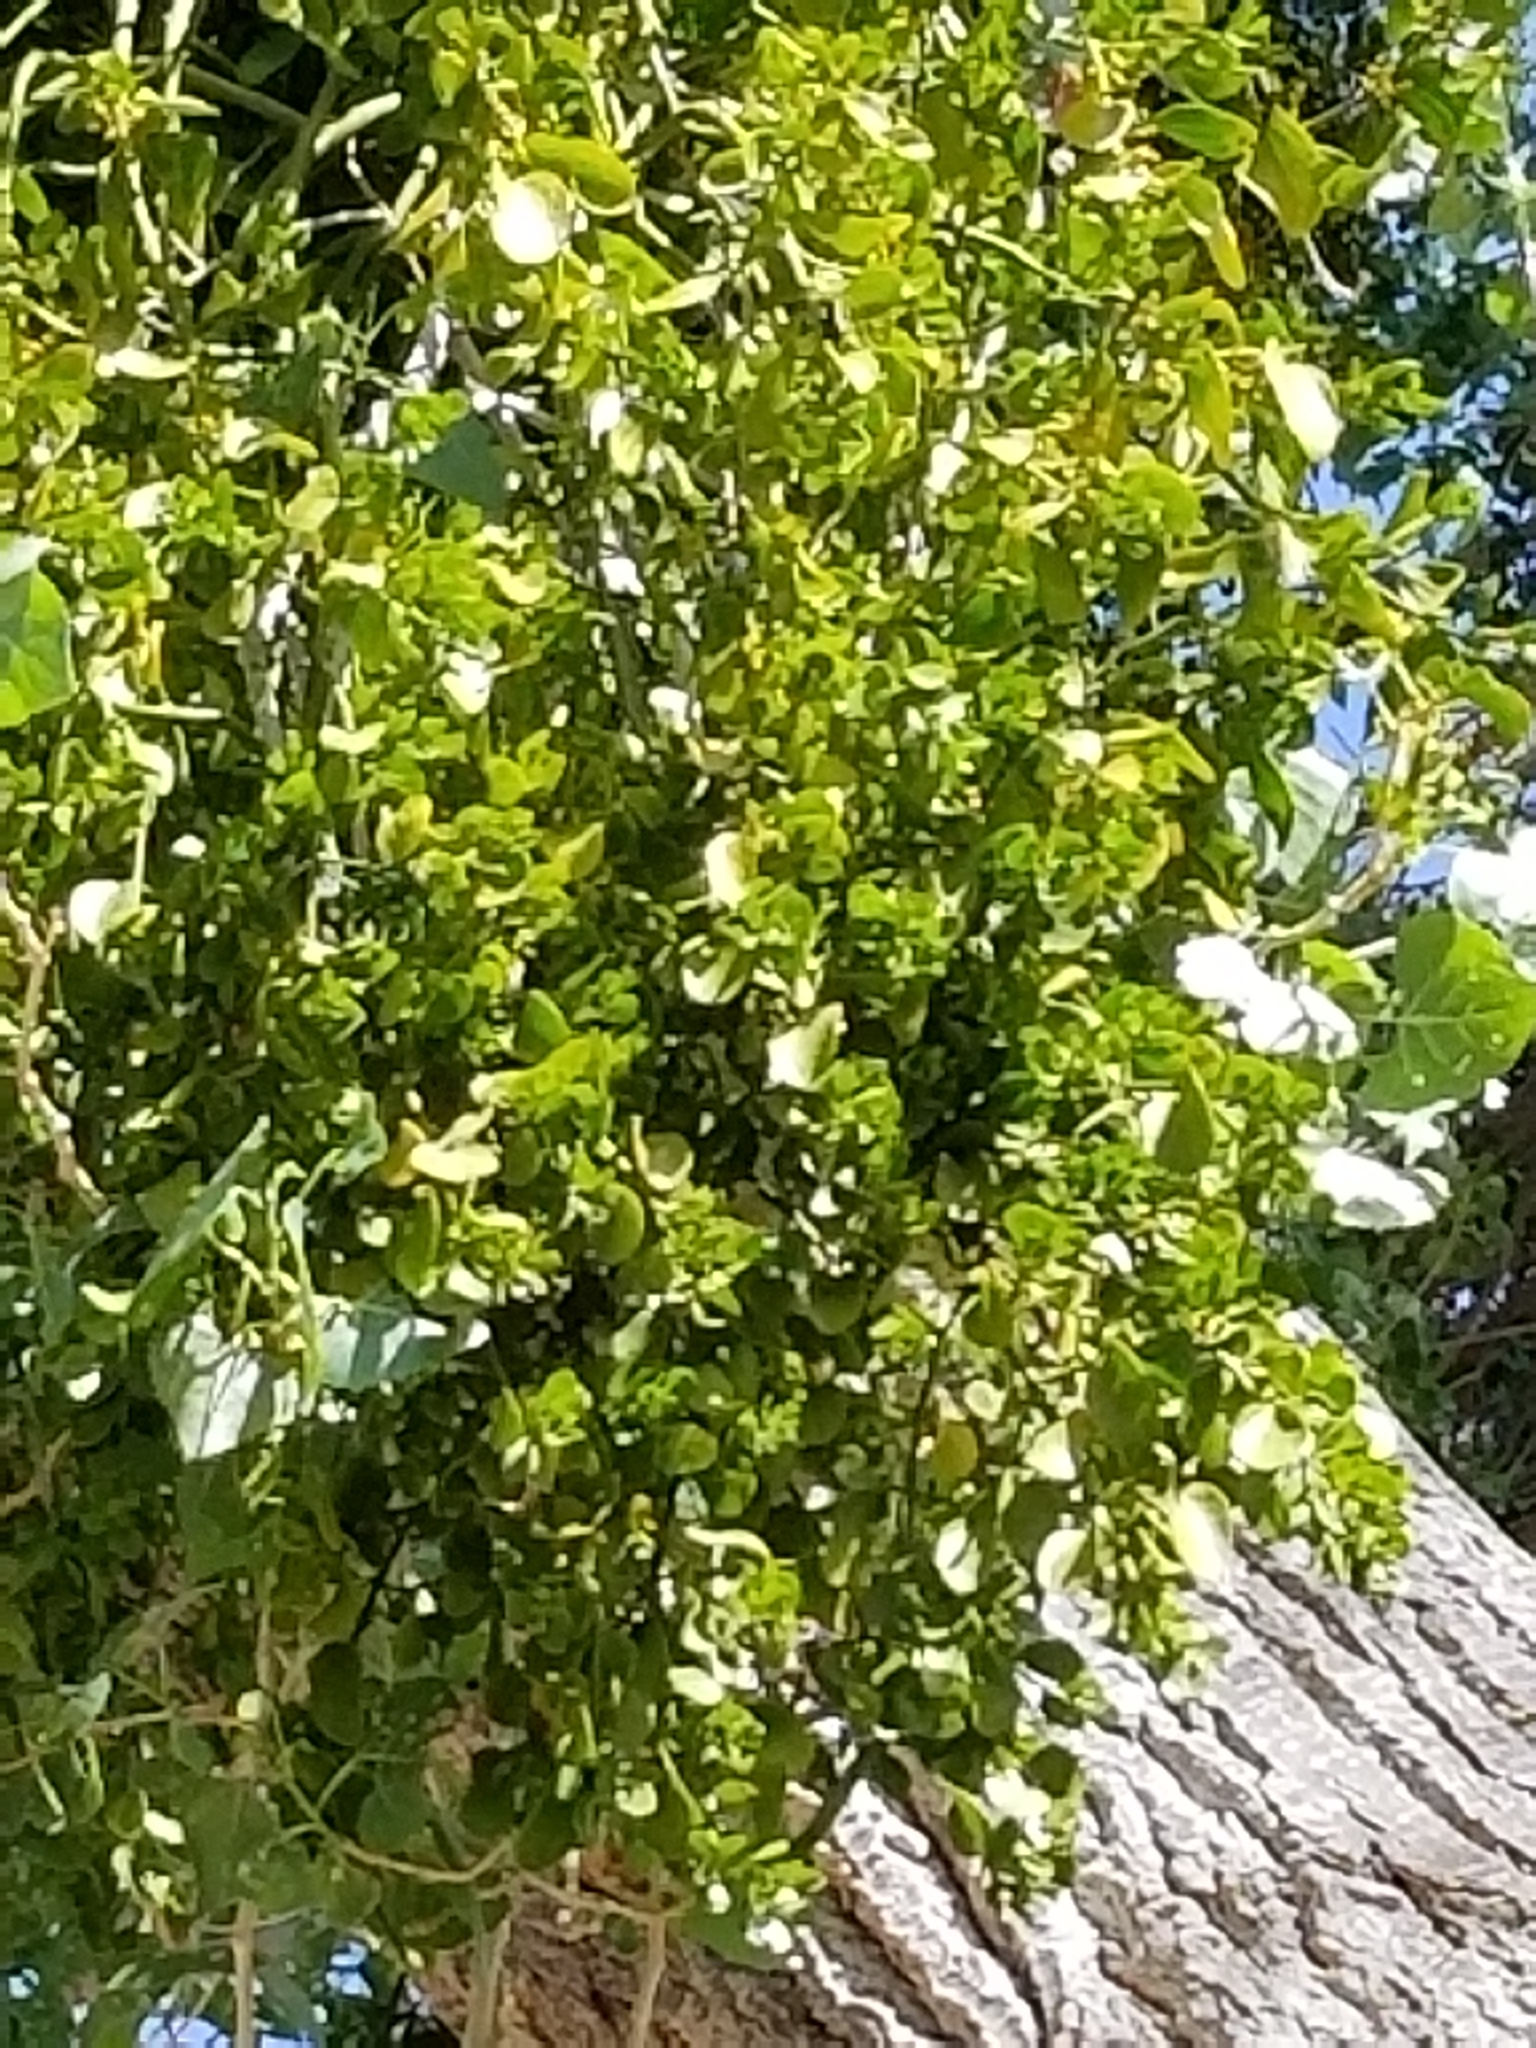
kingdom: Plantae
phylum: Tracheophyta
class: Magnoliopsida
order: Santalales
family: Viscaceae
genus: Phoradendron
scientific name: Phoradendron
